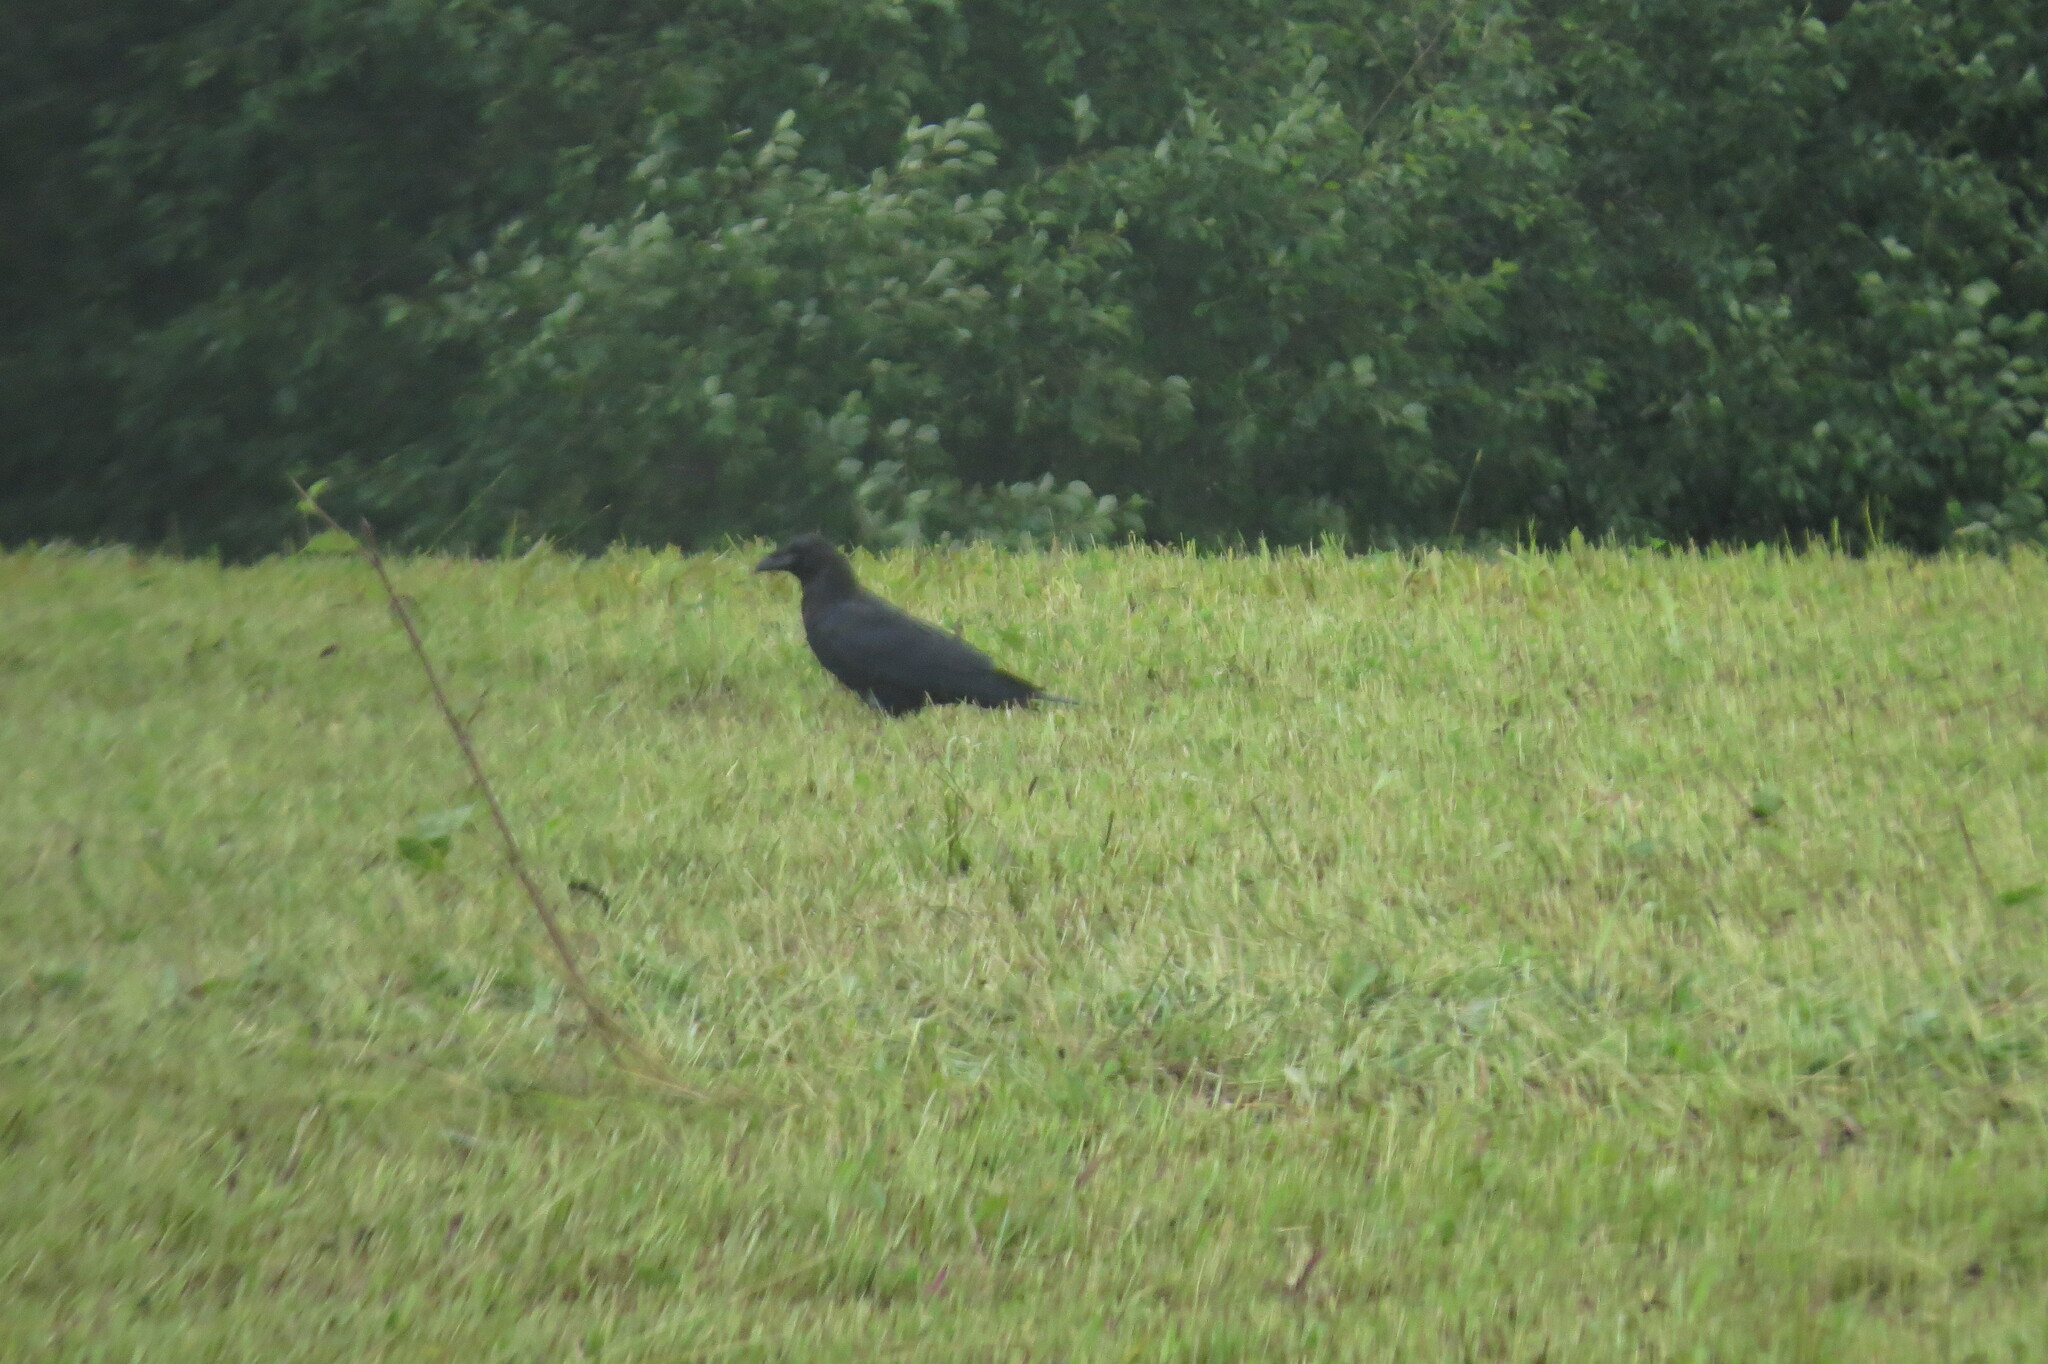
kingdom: Animalia
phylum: Chordata
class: Aves
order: Passeriformes
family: Corvidae
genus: Corvus
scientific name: Corvus corax
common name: Common raven
